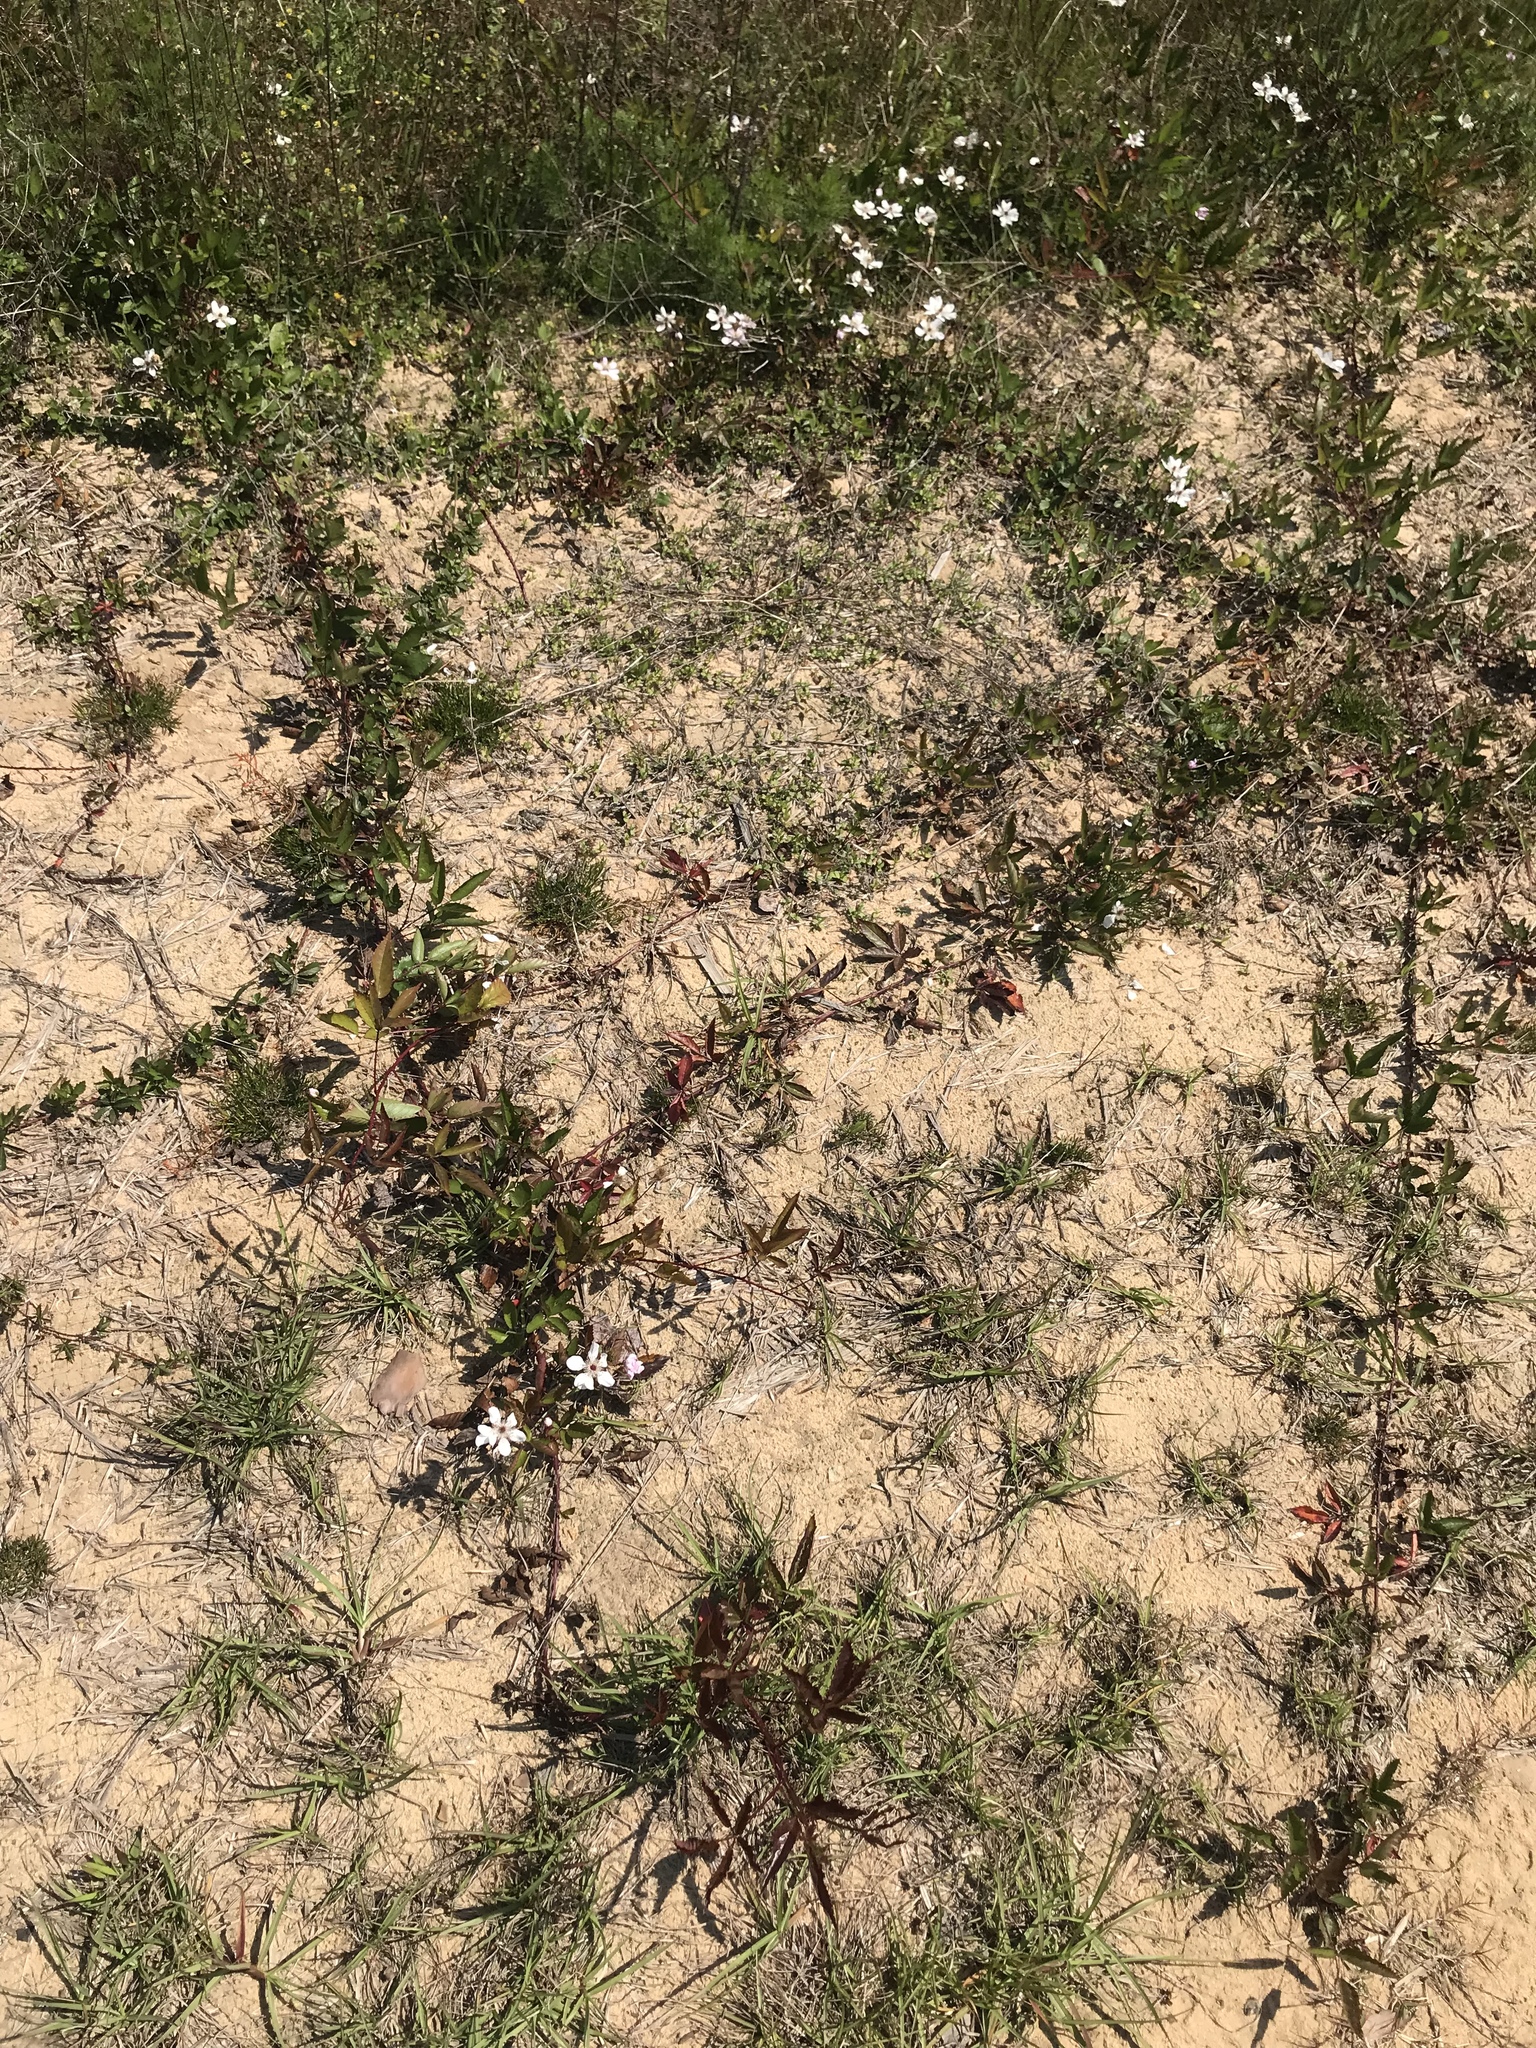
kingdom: Plantae
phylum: Tracheophyta
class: Magnoliopsida
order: Rosales
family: Rosaceae
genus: Rubus
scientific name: Rubus trivialis
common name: Southern dewberry
